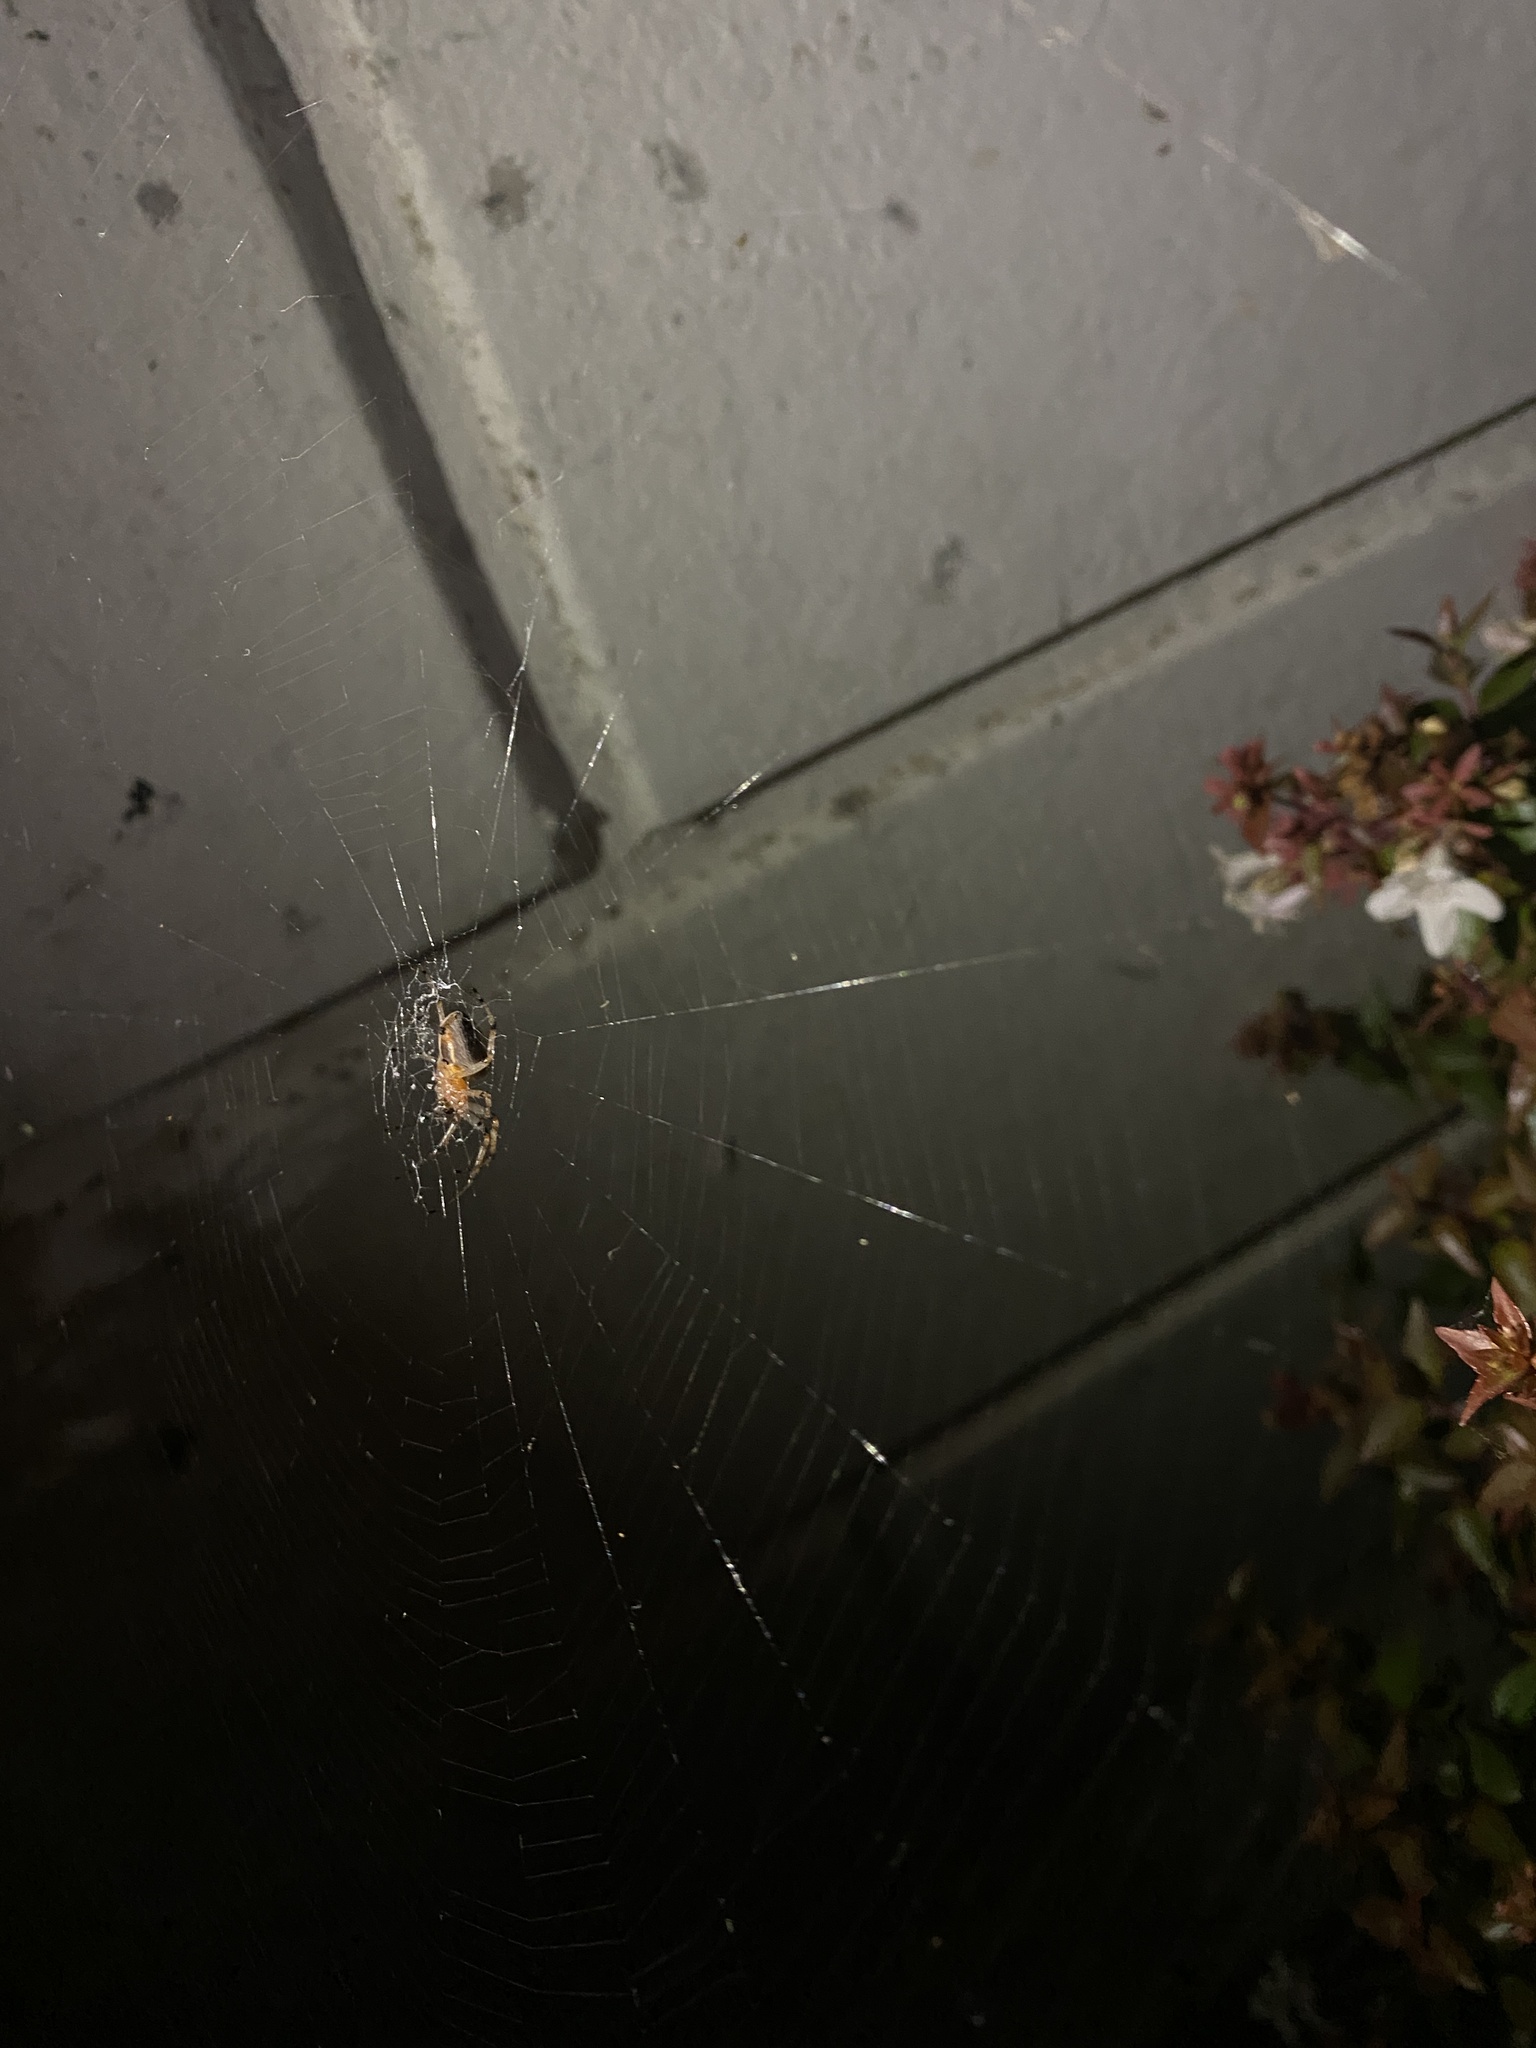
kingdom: Animalia
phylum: Arthropoda
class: Arachnida
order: Araneae
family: Araneidae
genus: Alpaida
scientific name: Alpaida veniliae
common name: Orb weavers
